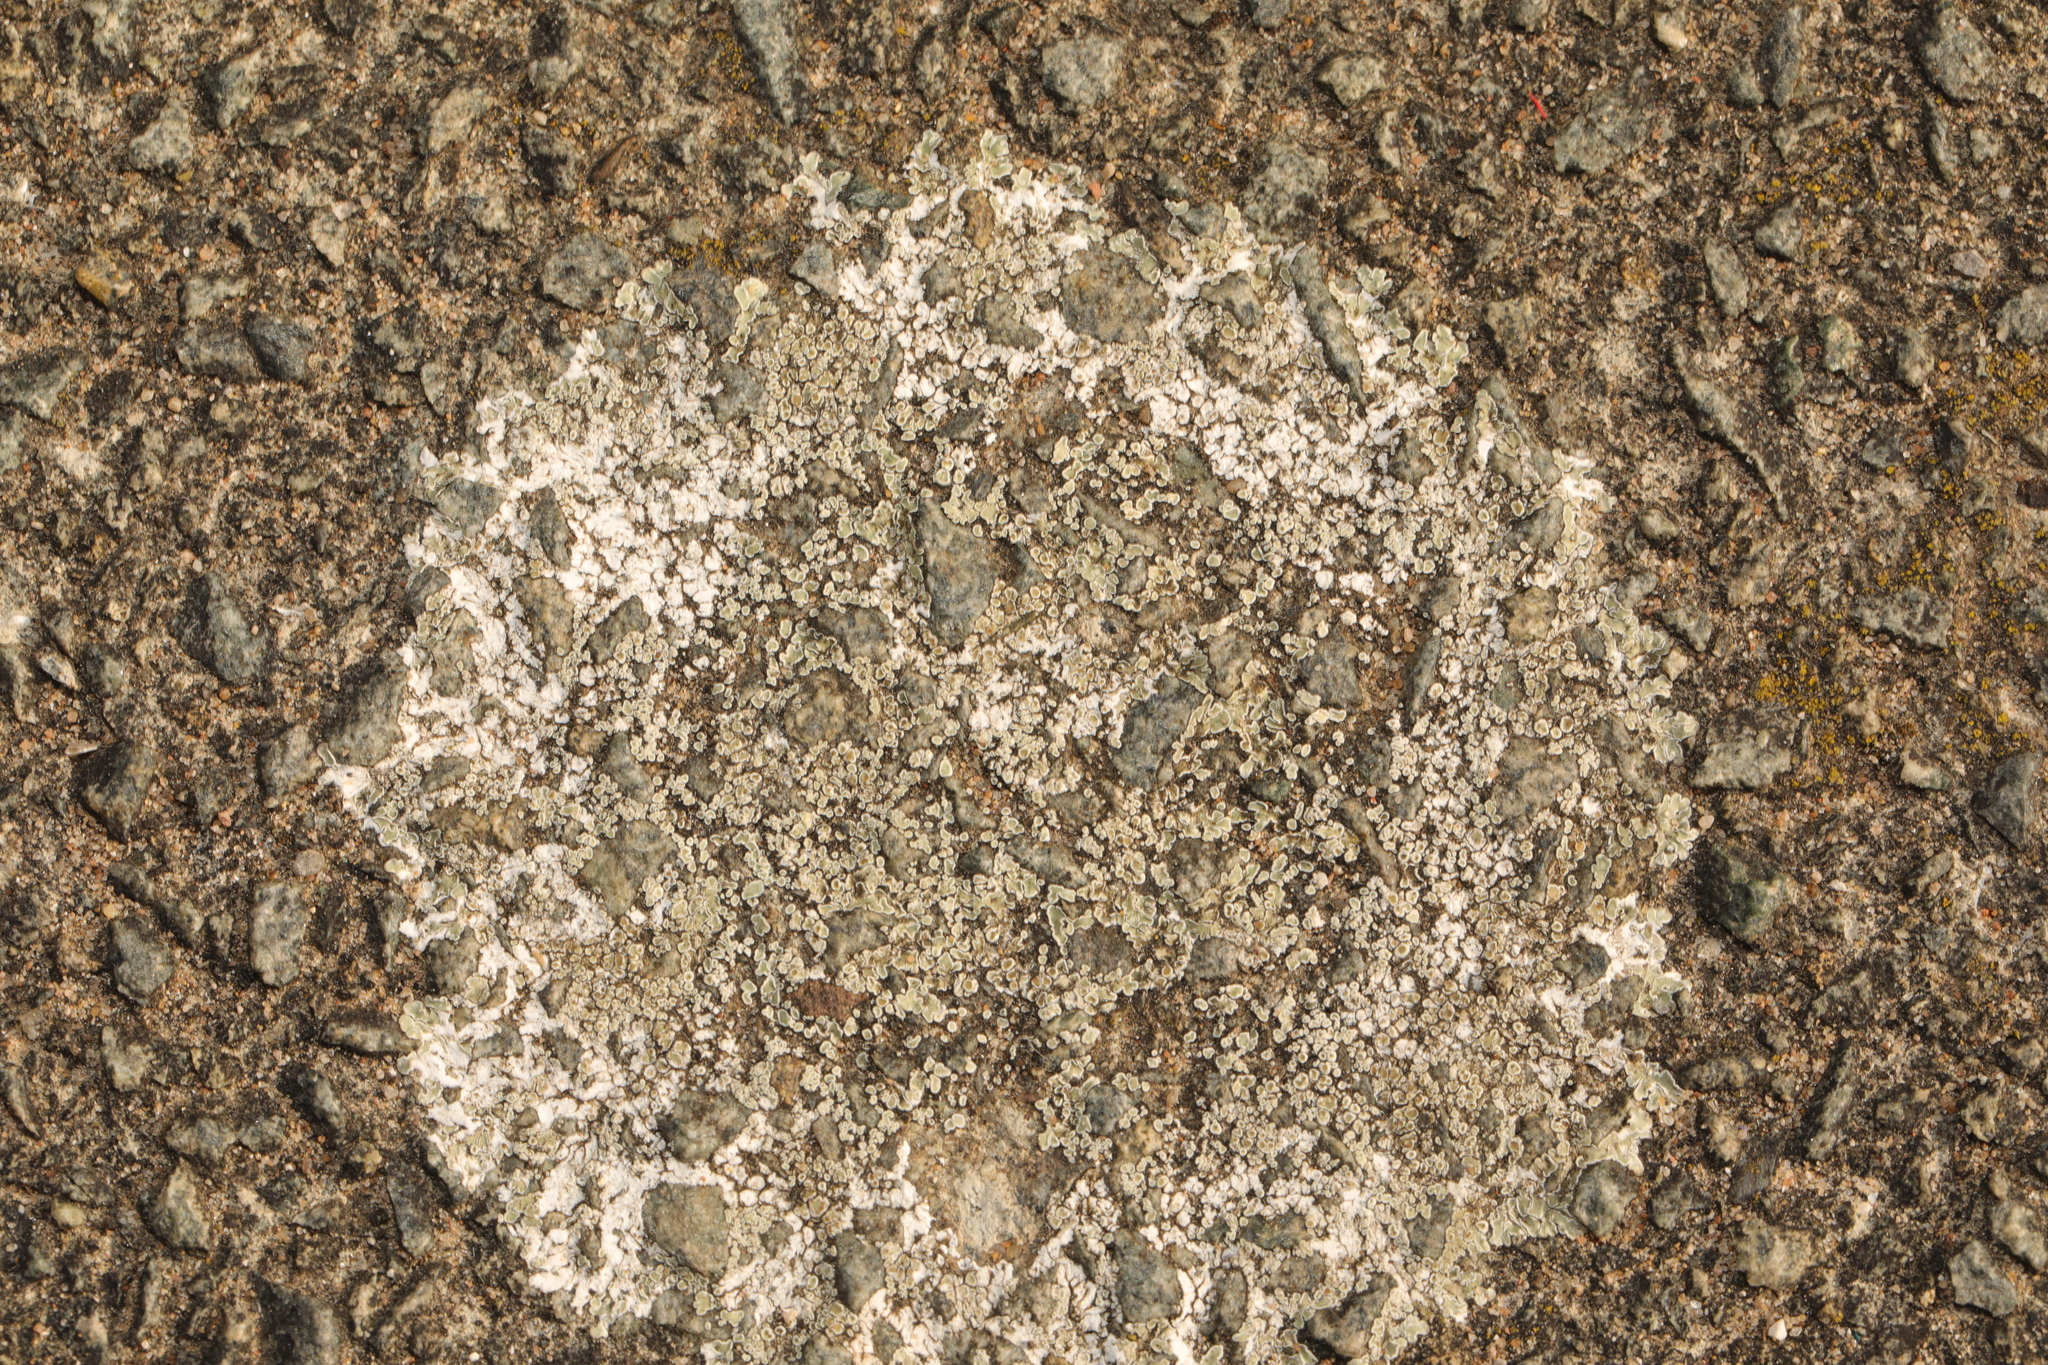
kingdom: Fungi
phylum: Ascomycota
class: Lecanoromycetes
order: Lecanorales
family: Lecanoraceae
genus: Protoparmeliopsis
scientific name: Protoparmeliopsis muralis
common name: Stonewall rim lichen
